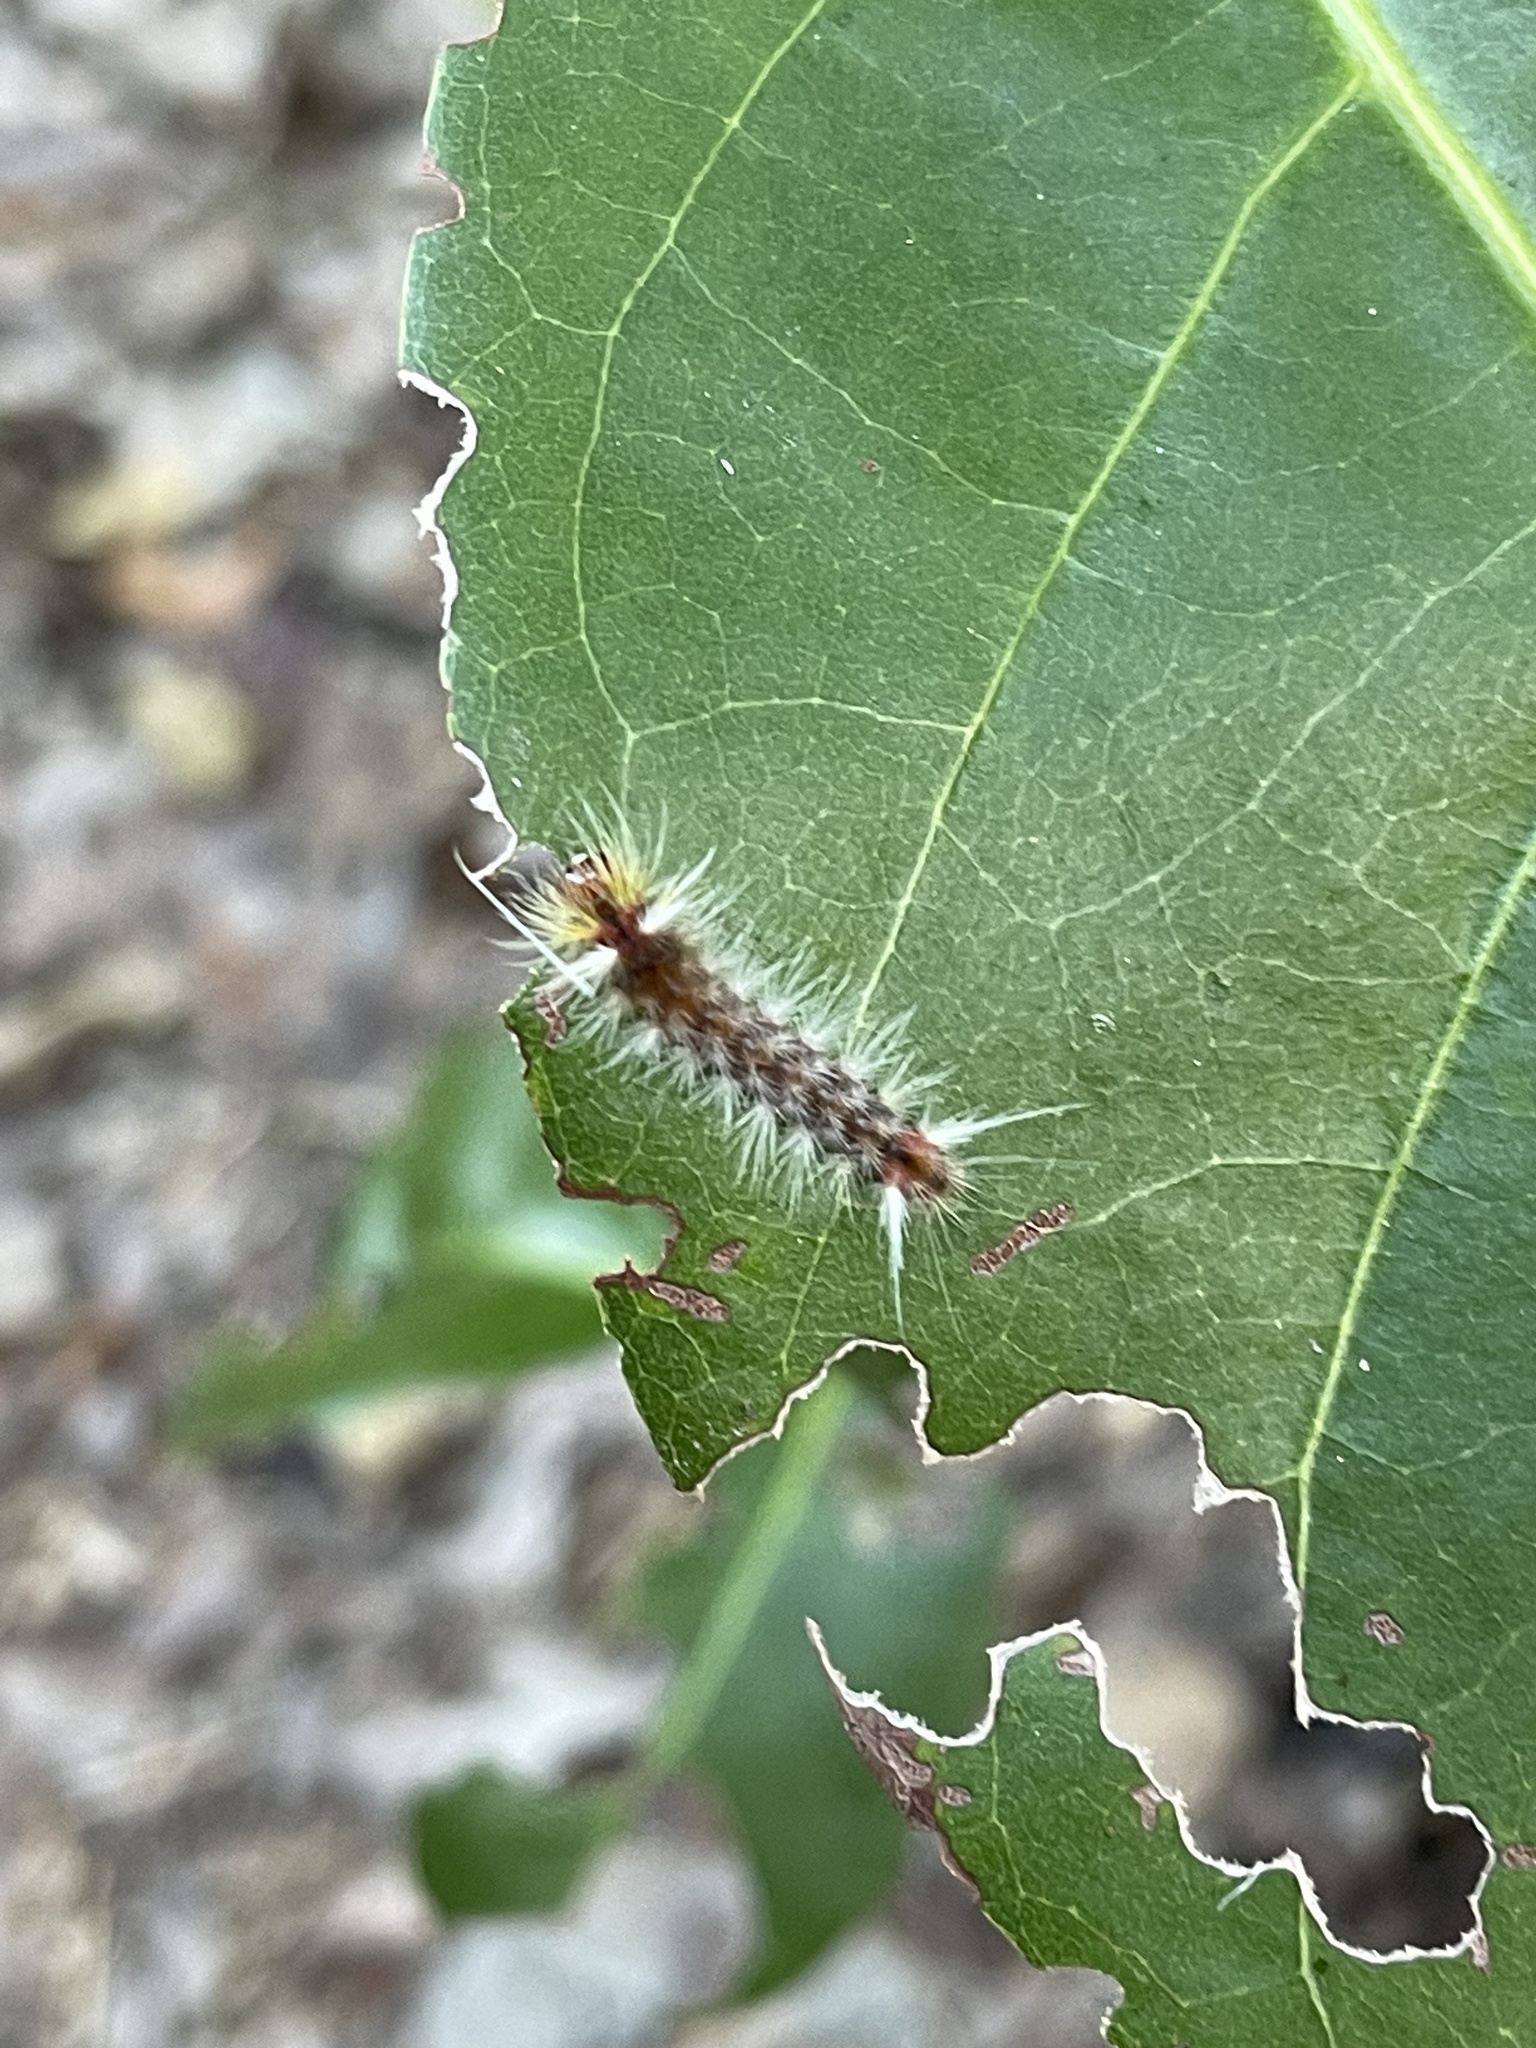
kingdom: Animalia
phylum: Arthropoda
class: Insecta
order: Lepidoptera
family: Erebidae
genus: Halysidota
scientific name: Halysidota cinctipes
